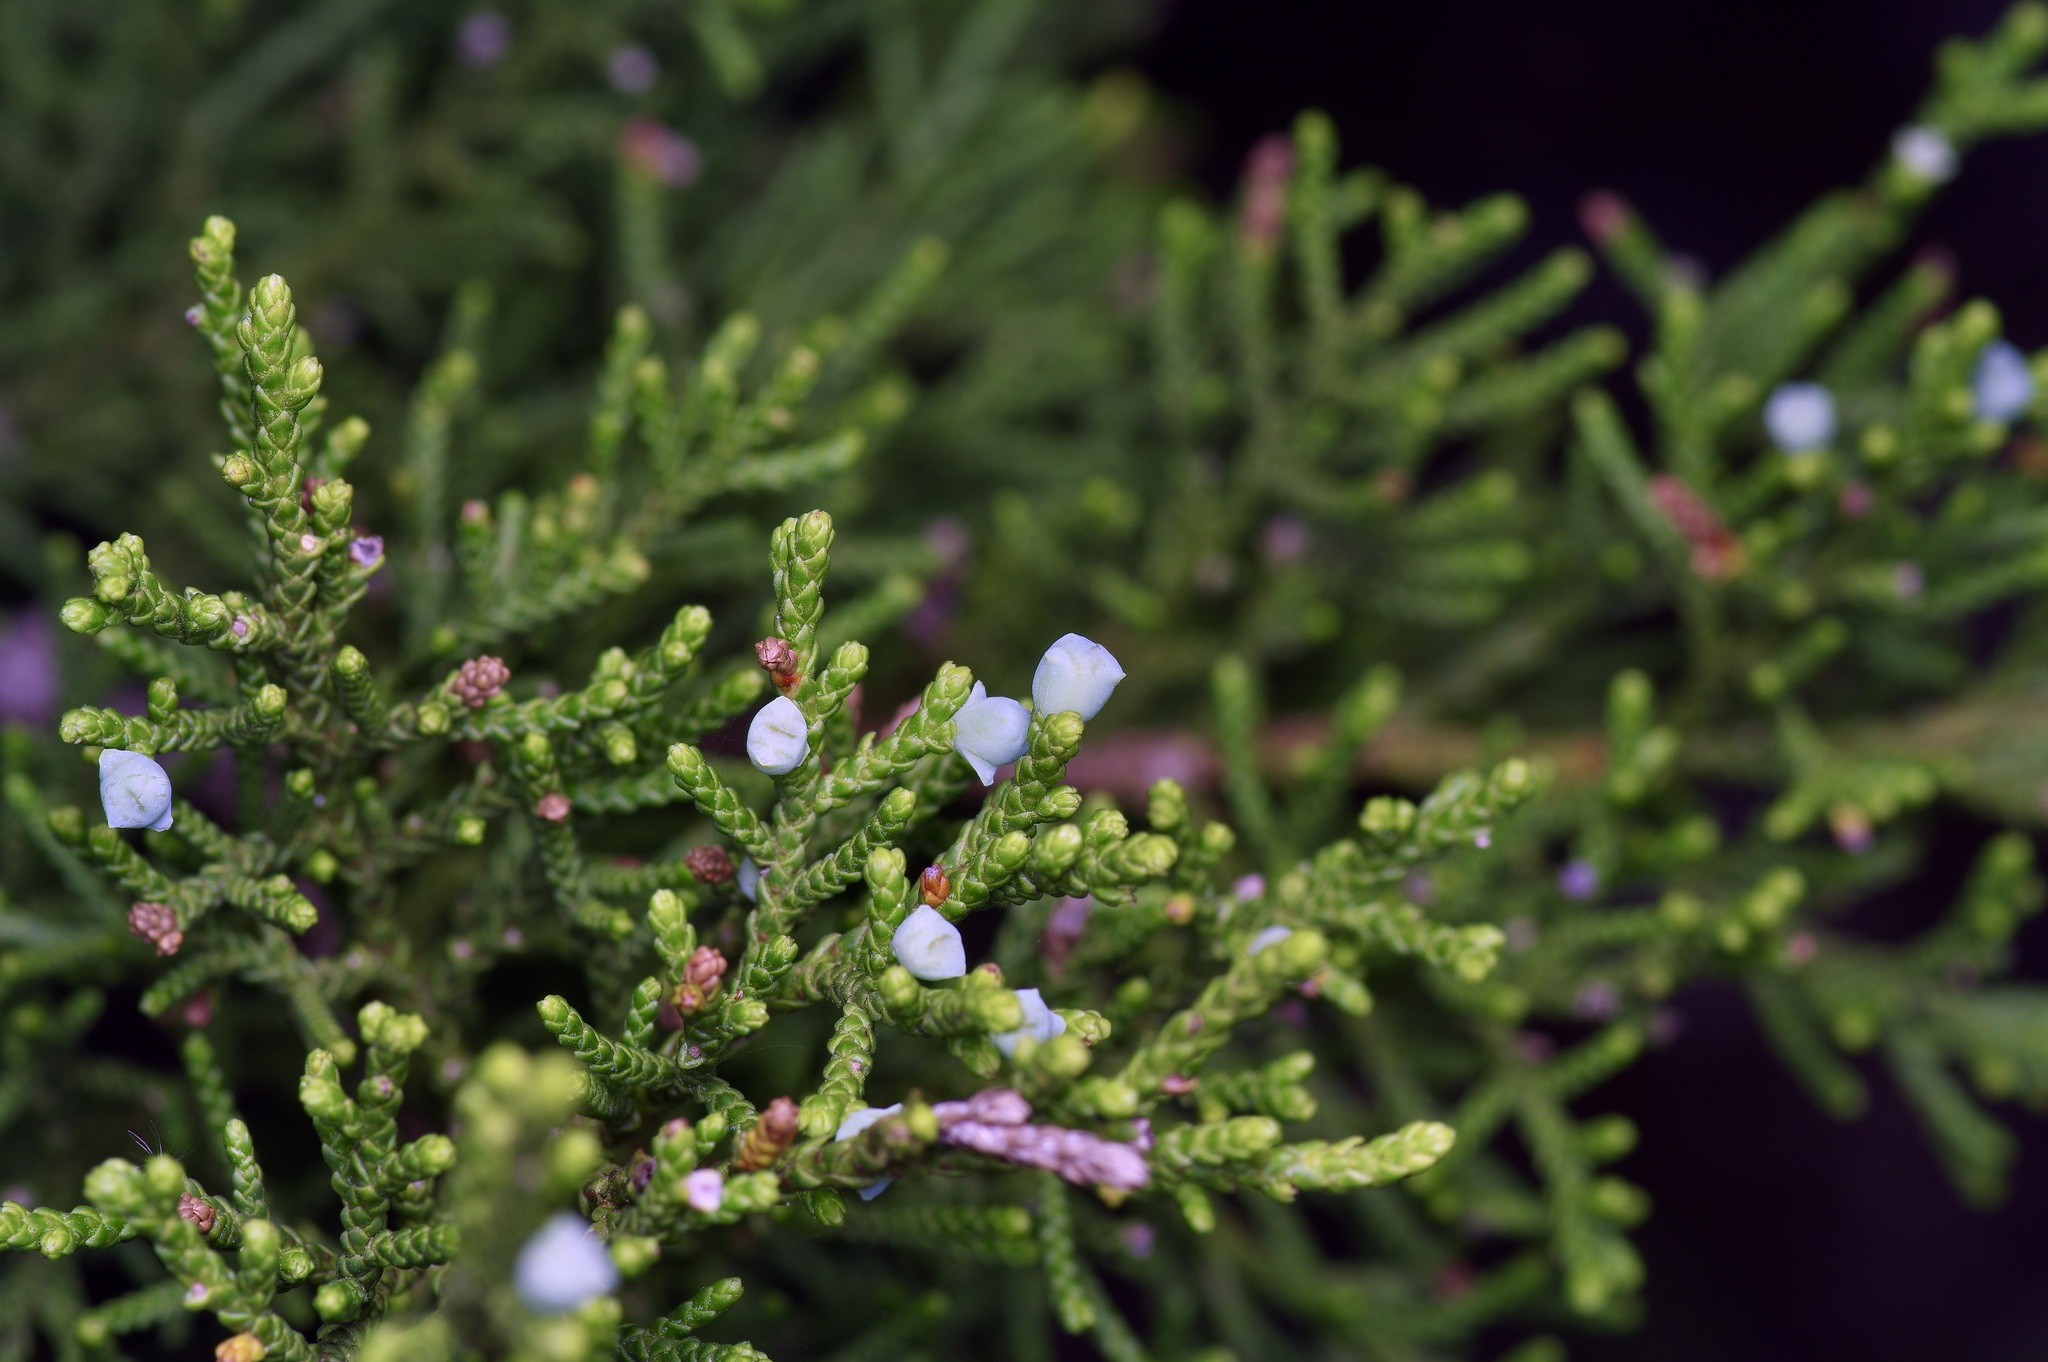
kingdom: Plantae
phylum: Tracheophyta
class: Pinopsida
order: Pinales
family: Cupressaceae
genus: Juniperus
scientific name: Juniperus ashei
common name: Mexican juniper
